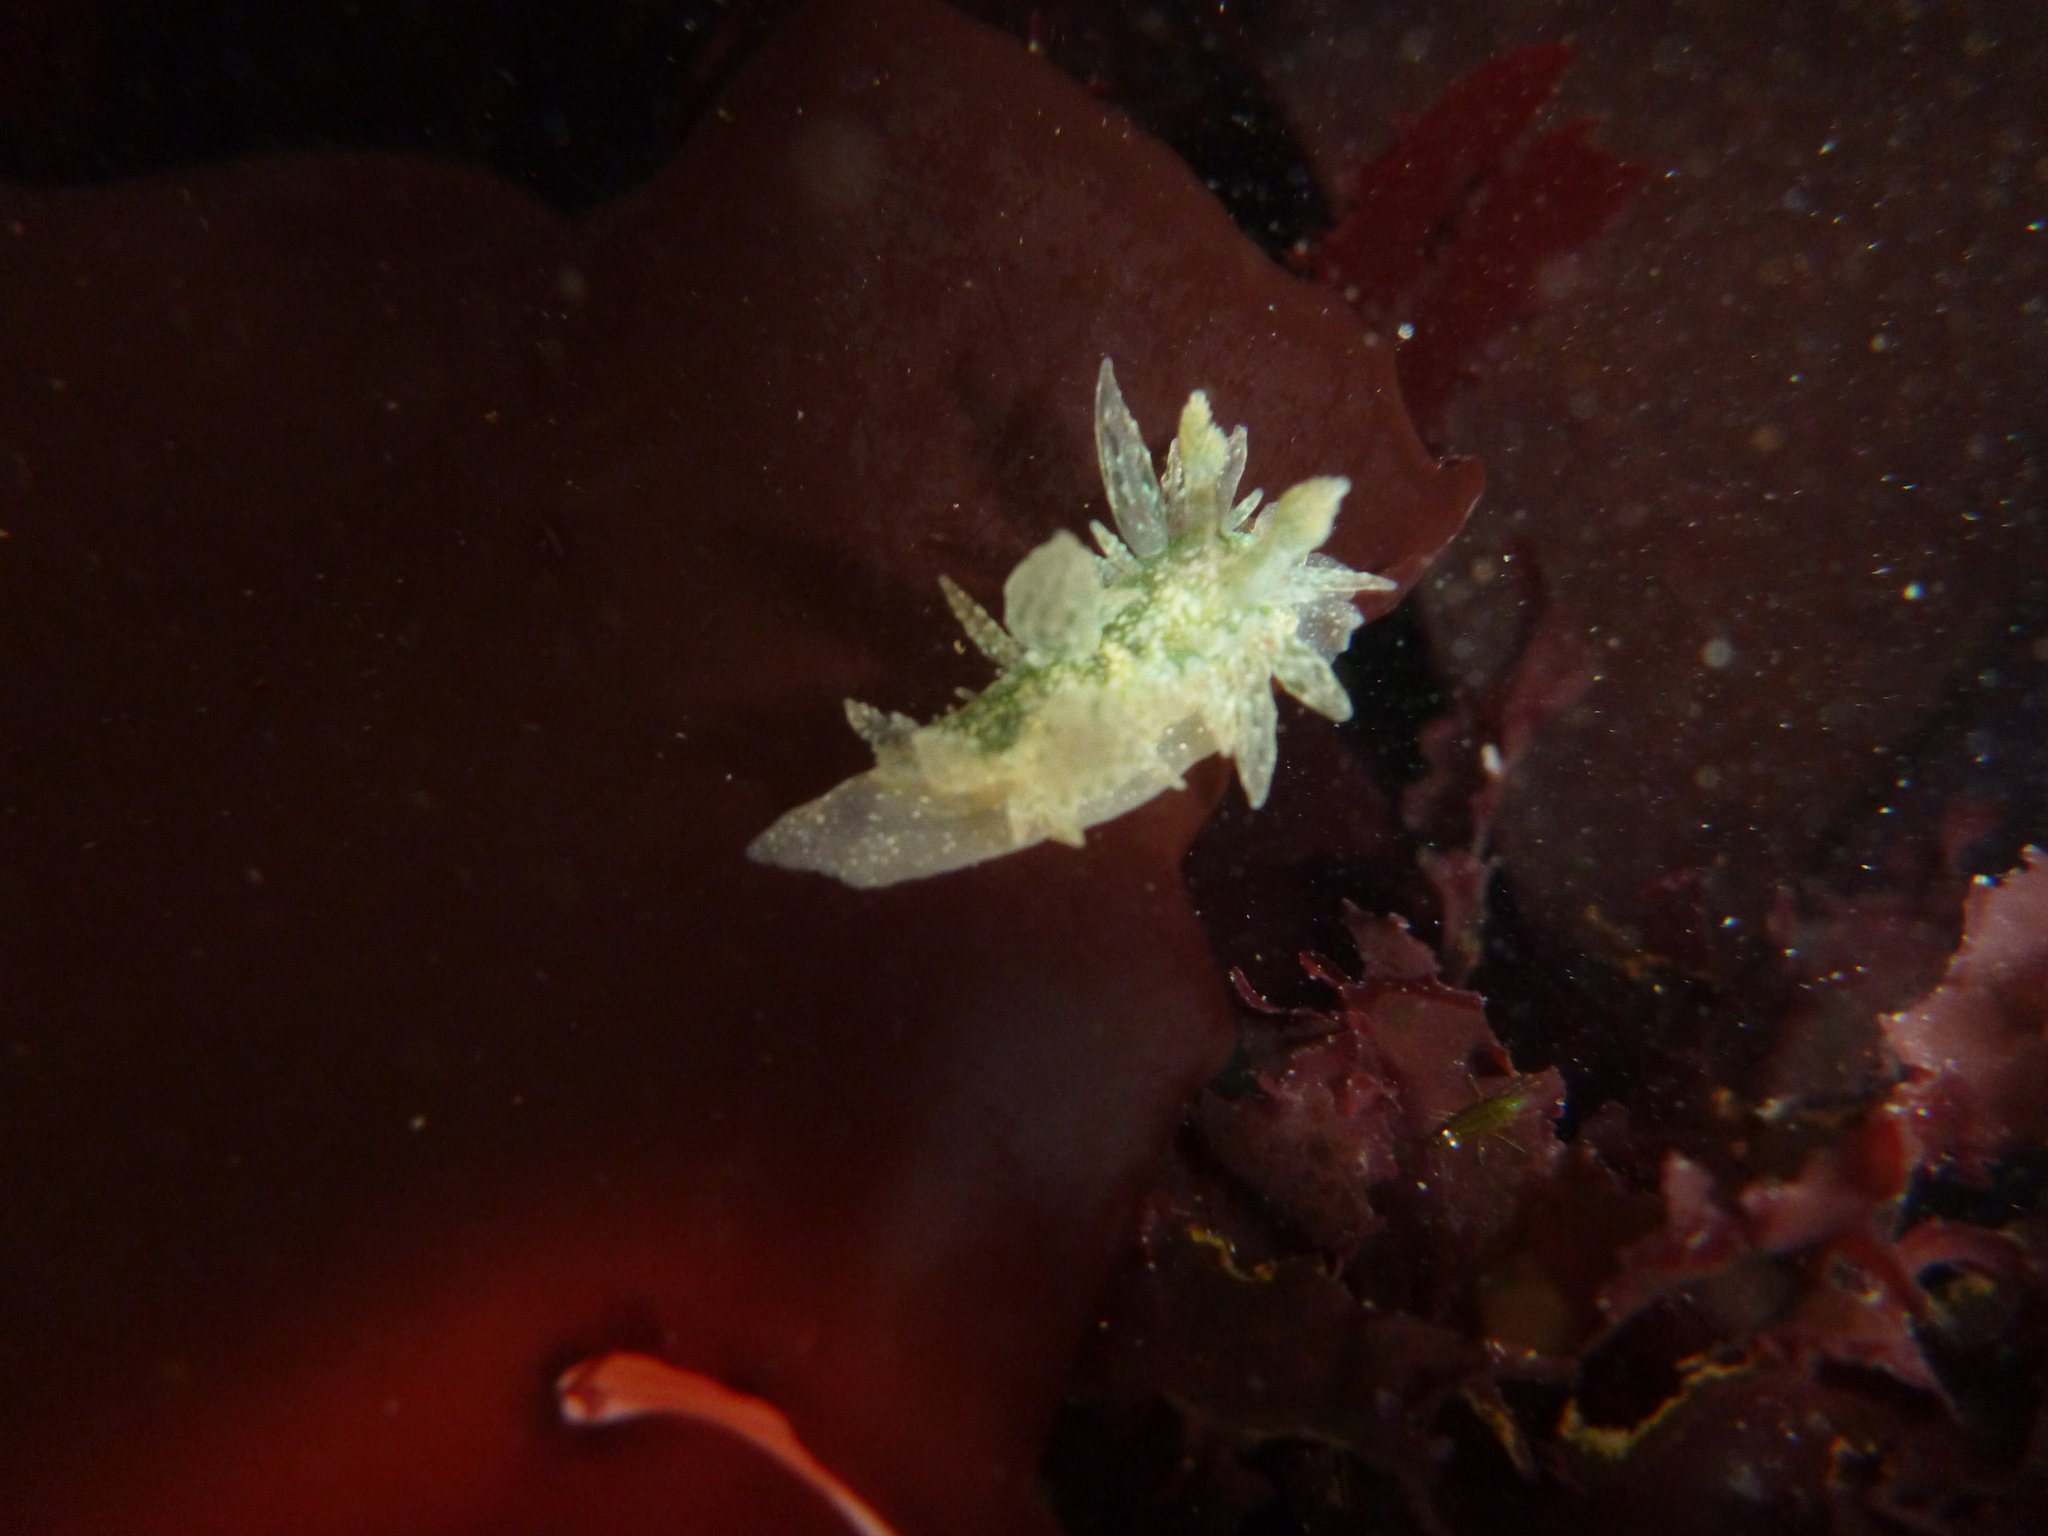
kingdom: Animalia
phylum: Mollusca
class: Gastropoda
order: Nudibranchia
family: Dironidae
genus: Dirona
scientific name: Dirona picta
